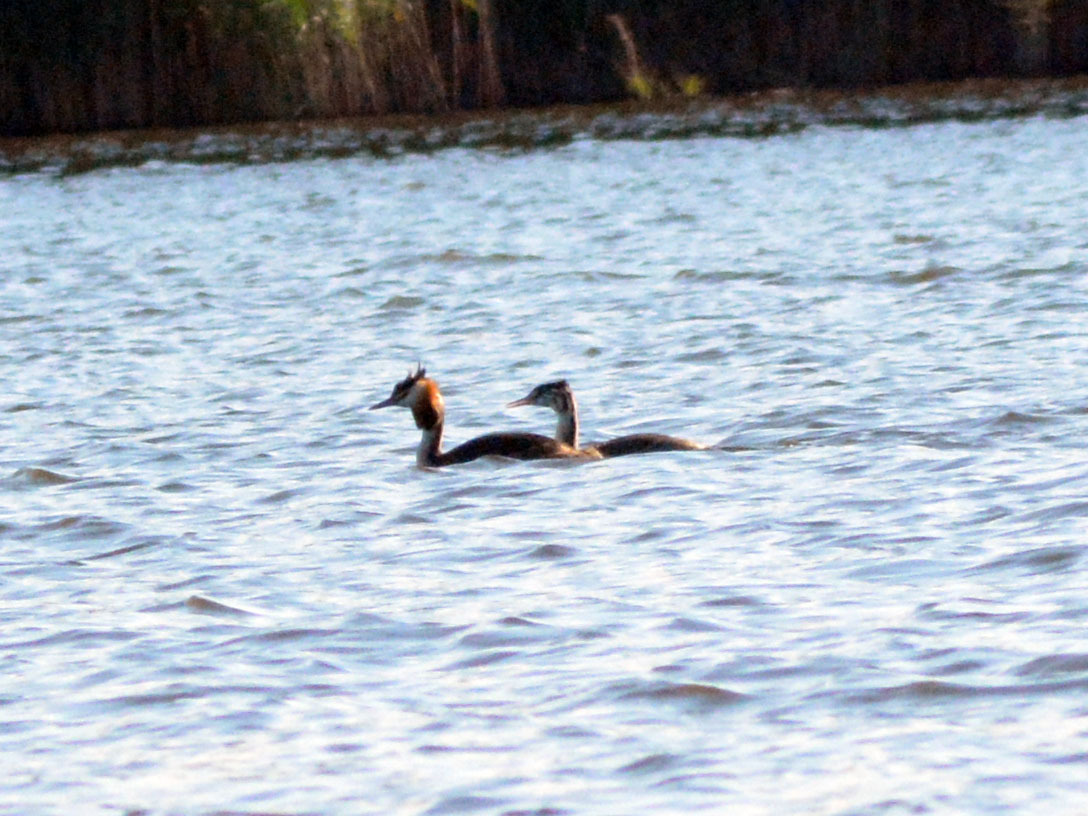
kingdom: Animalia
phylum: Chordata
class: Aves
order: Podicipediformes
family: Podicipedidae
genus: Podiceps
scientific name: Podiceps cristatus
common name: Great crested grebe
